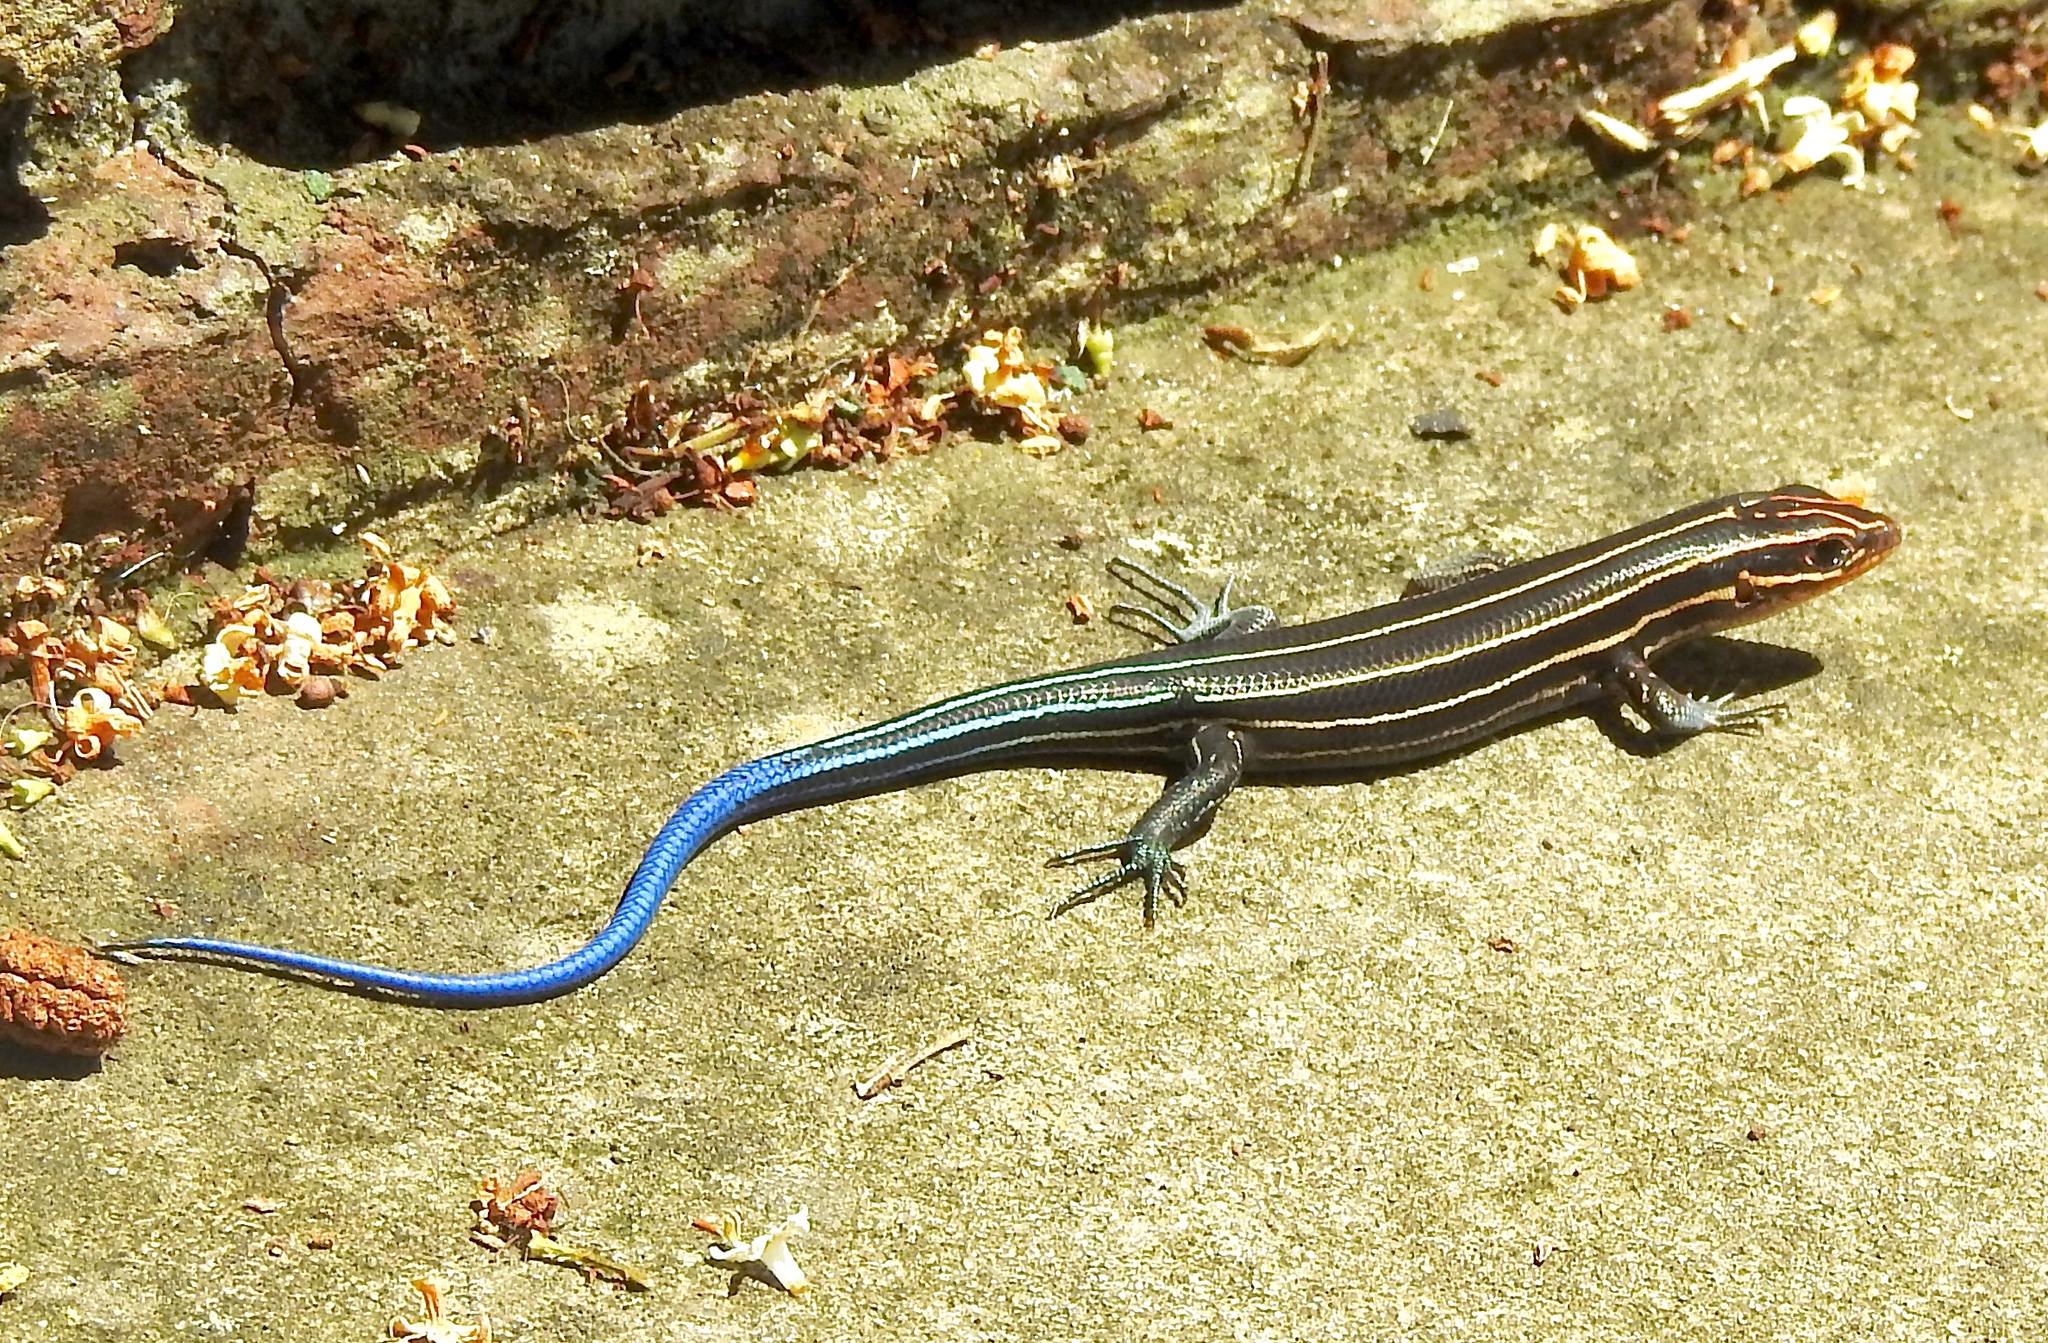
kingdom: Animalia
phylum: Chordata
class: Squamata
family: Scincidae
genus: Plestiodon
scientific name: Plestiodon inexpectatus
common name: Southeastern five-lined skink
